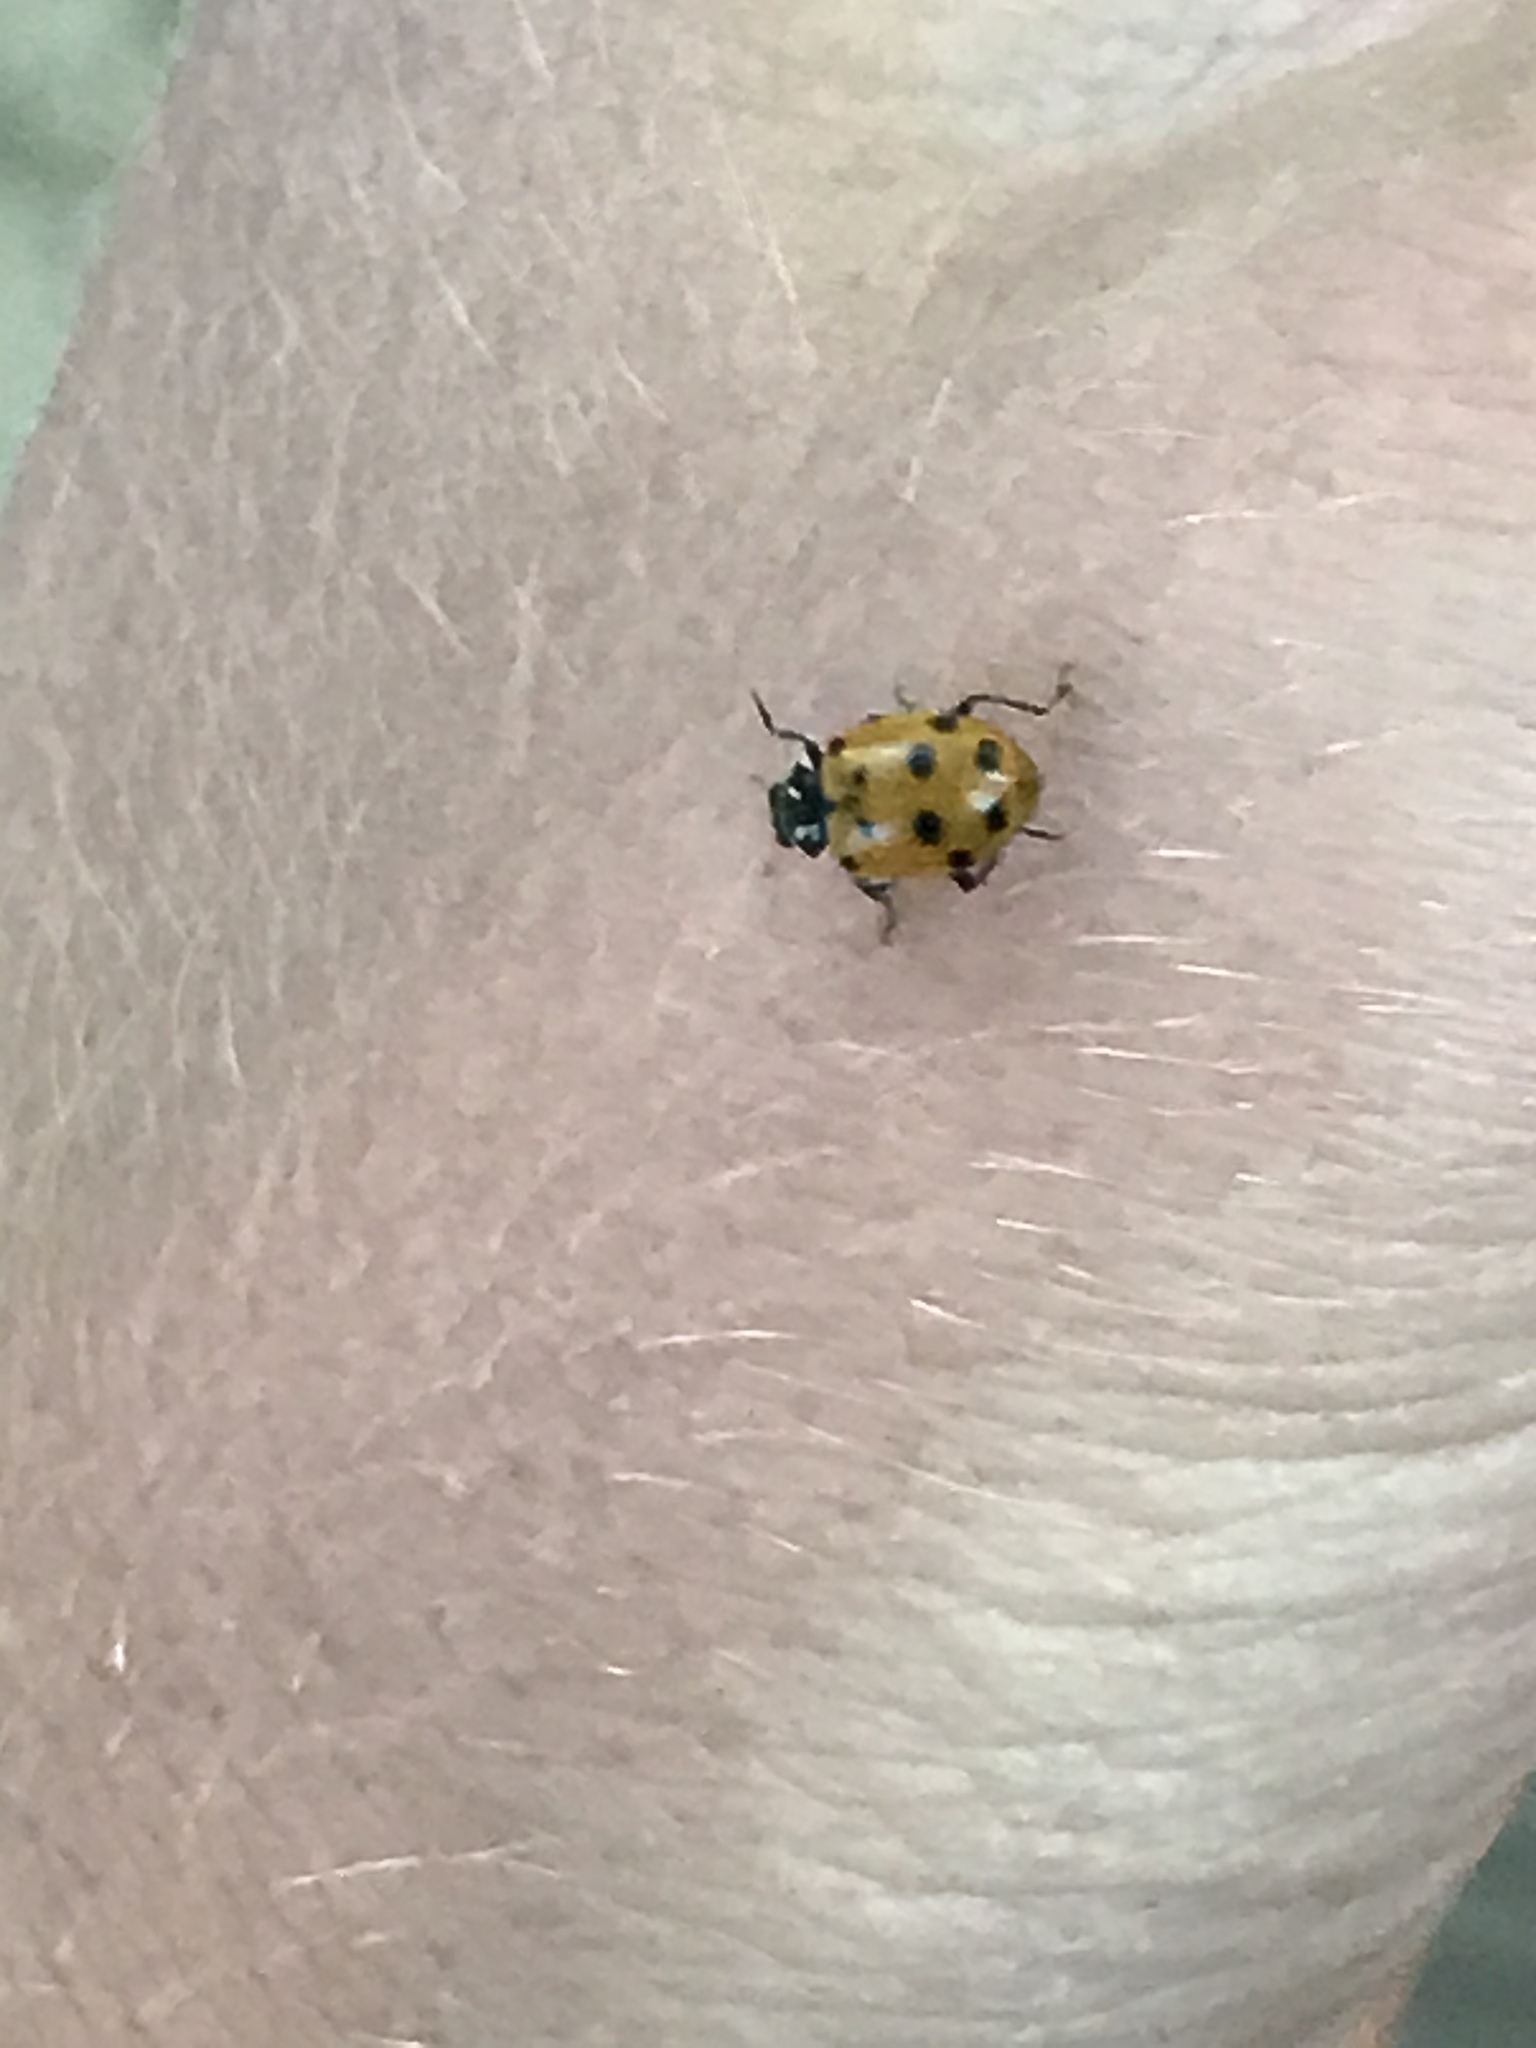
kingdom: Animalia
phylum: Arthropoda
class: Insecta
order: Coleoptera
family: Coccinellidae
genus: Hippodamia
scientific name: Hippodamia convergens
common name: Convergent lady beetle
